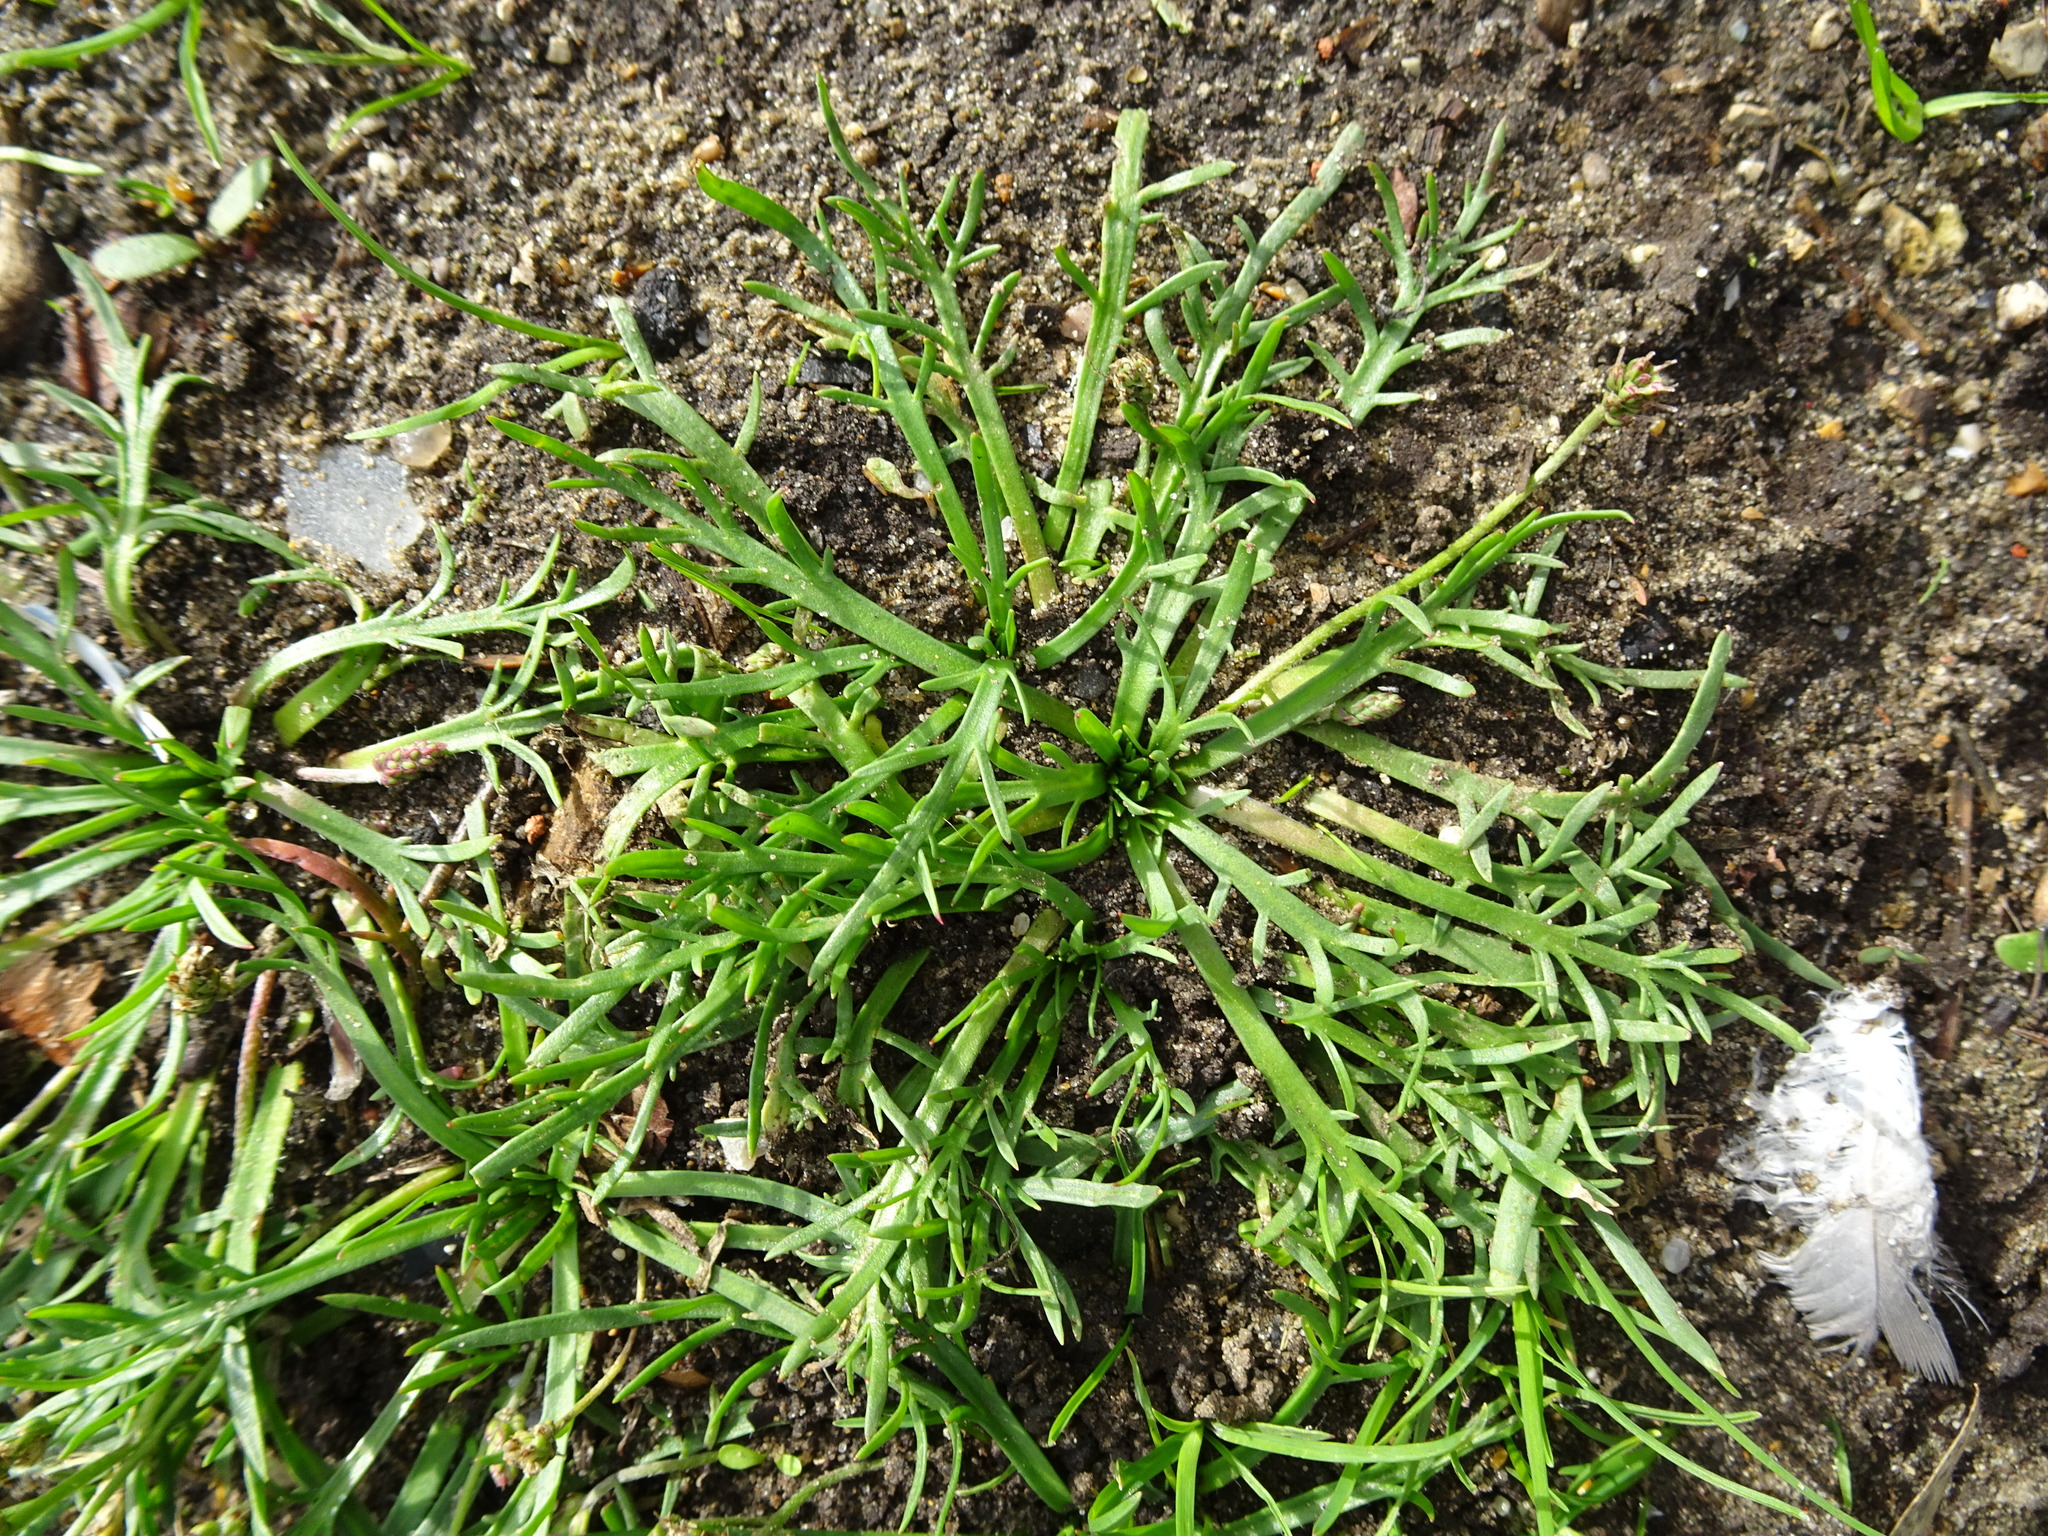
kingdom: Plantae
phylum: Tracheophyta
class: Magnoliopsida
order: Lamiales
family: Plantaginaceae
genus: Plantago
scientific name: Plantago coronopus
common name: Buck's-horn plantain
